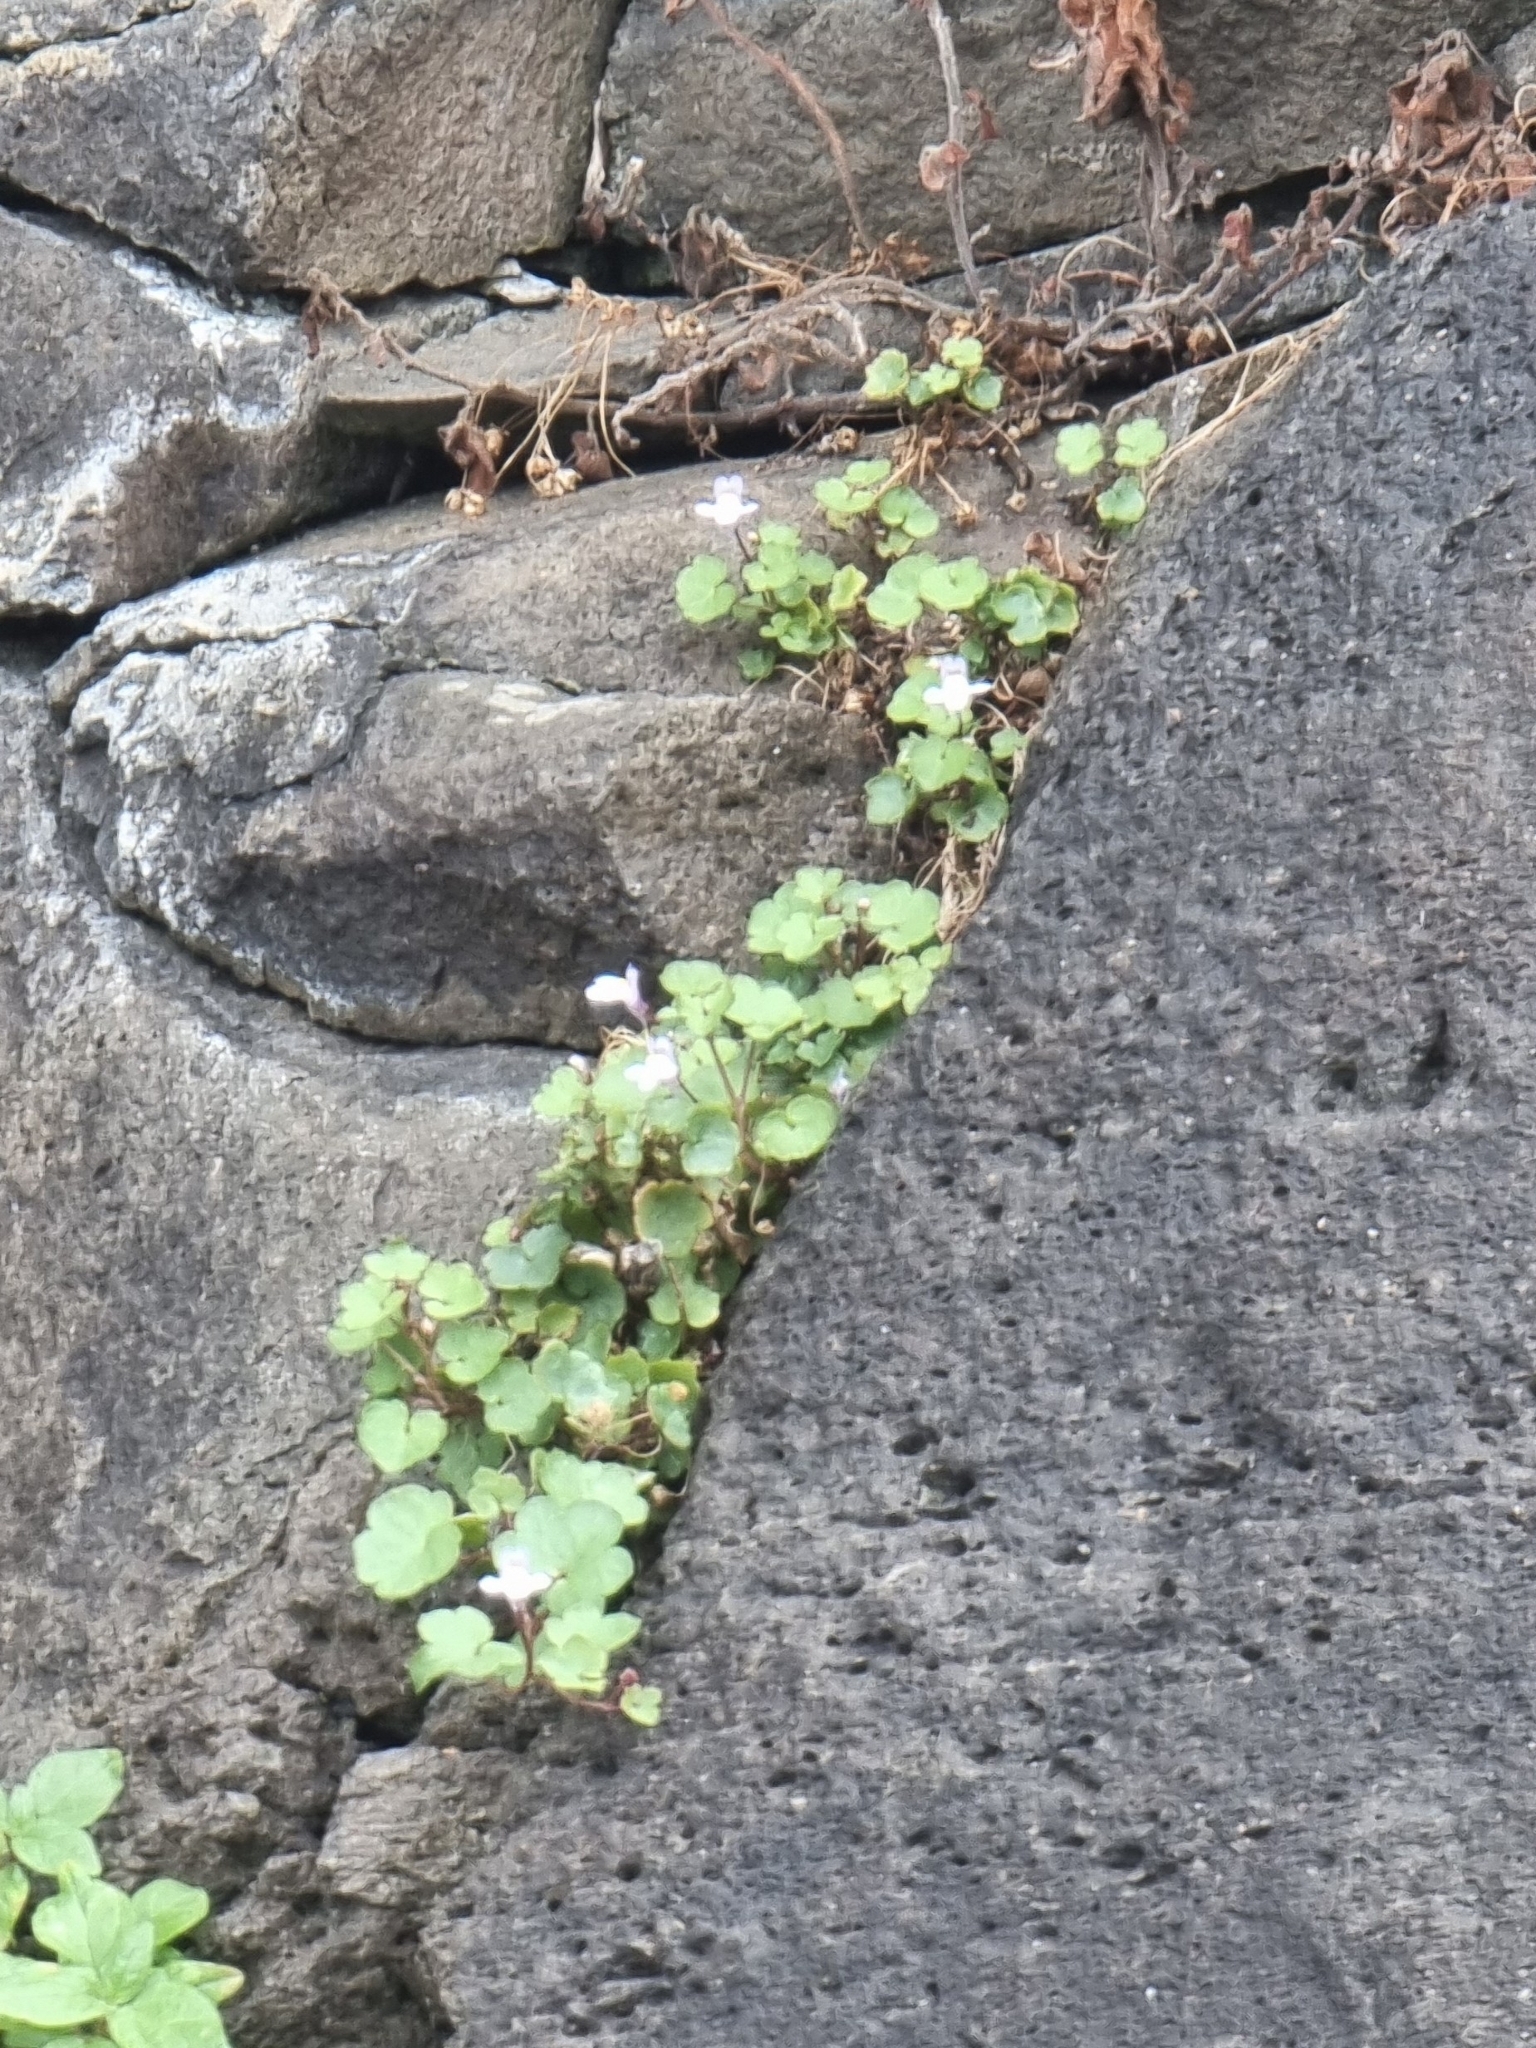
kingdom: Plantae
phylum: Tracheophyta
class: Magnoliopsida
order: Lamiales
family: Plantaginaceae
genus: Cymbalaria
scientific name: Cymbalaria muralis
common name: Ivy-leaved toadflax
